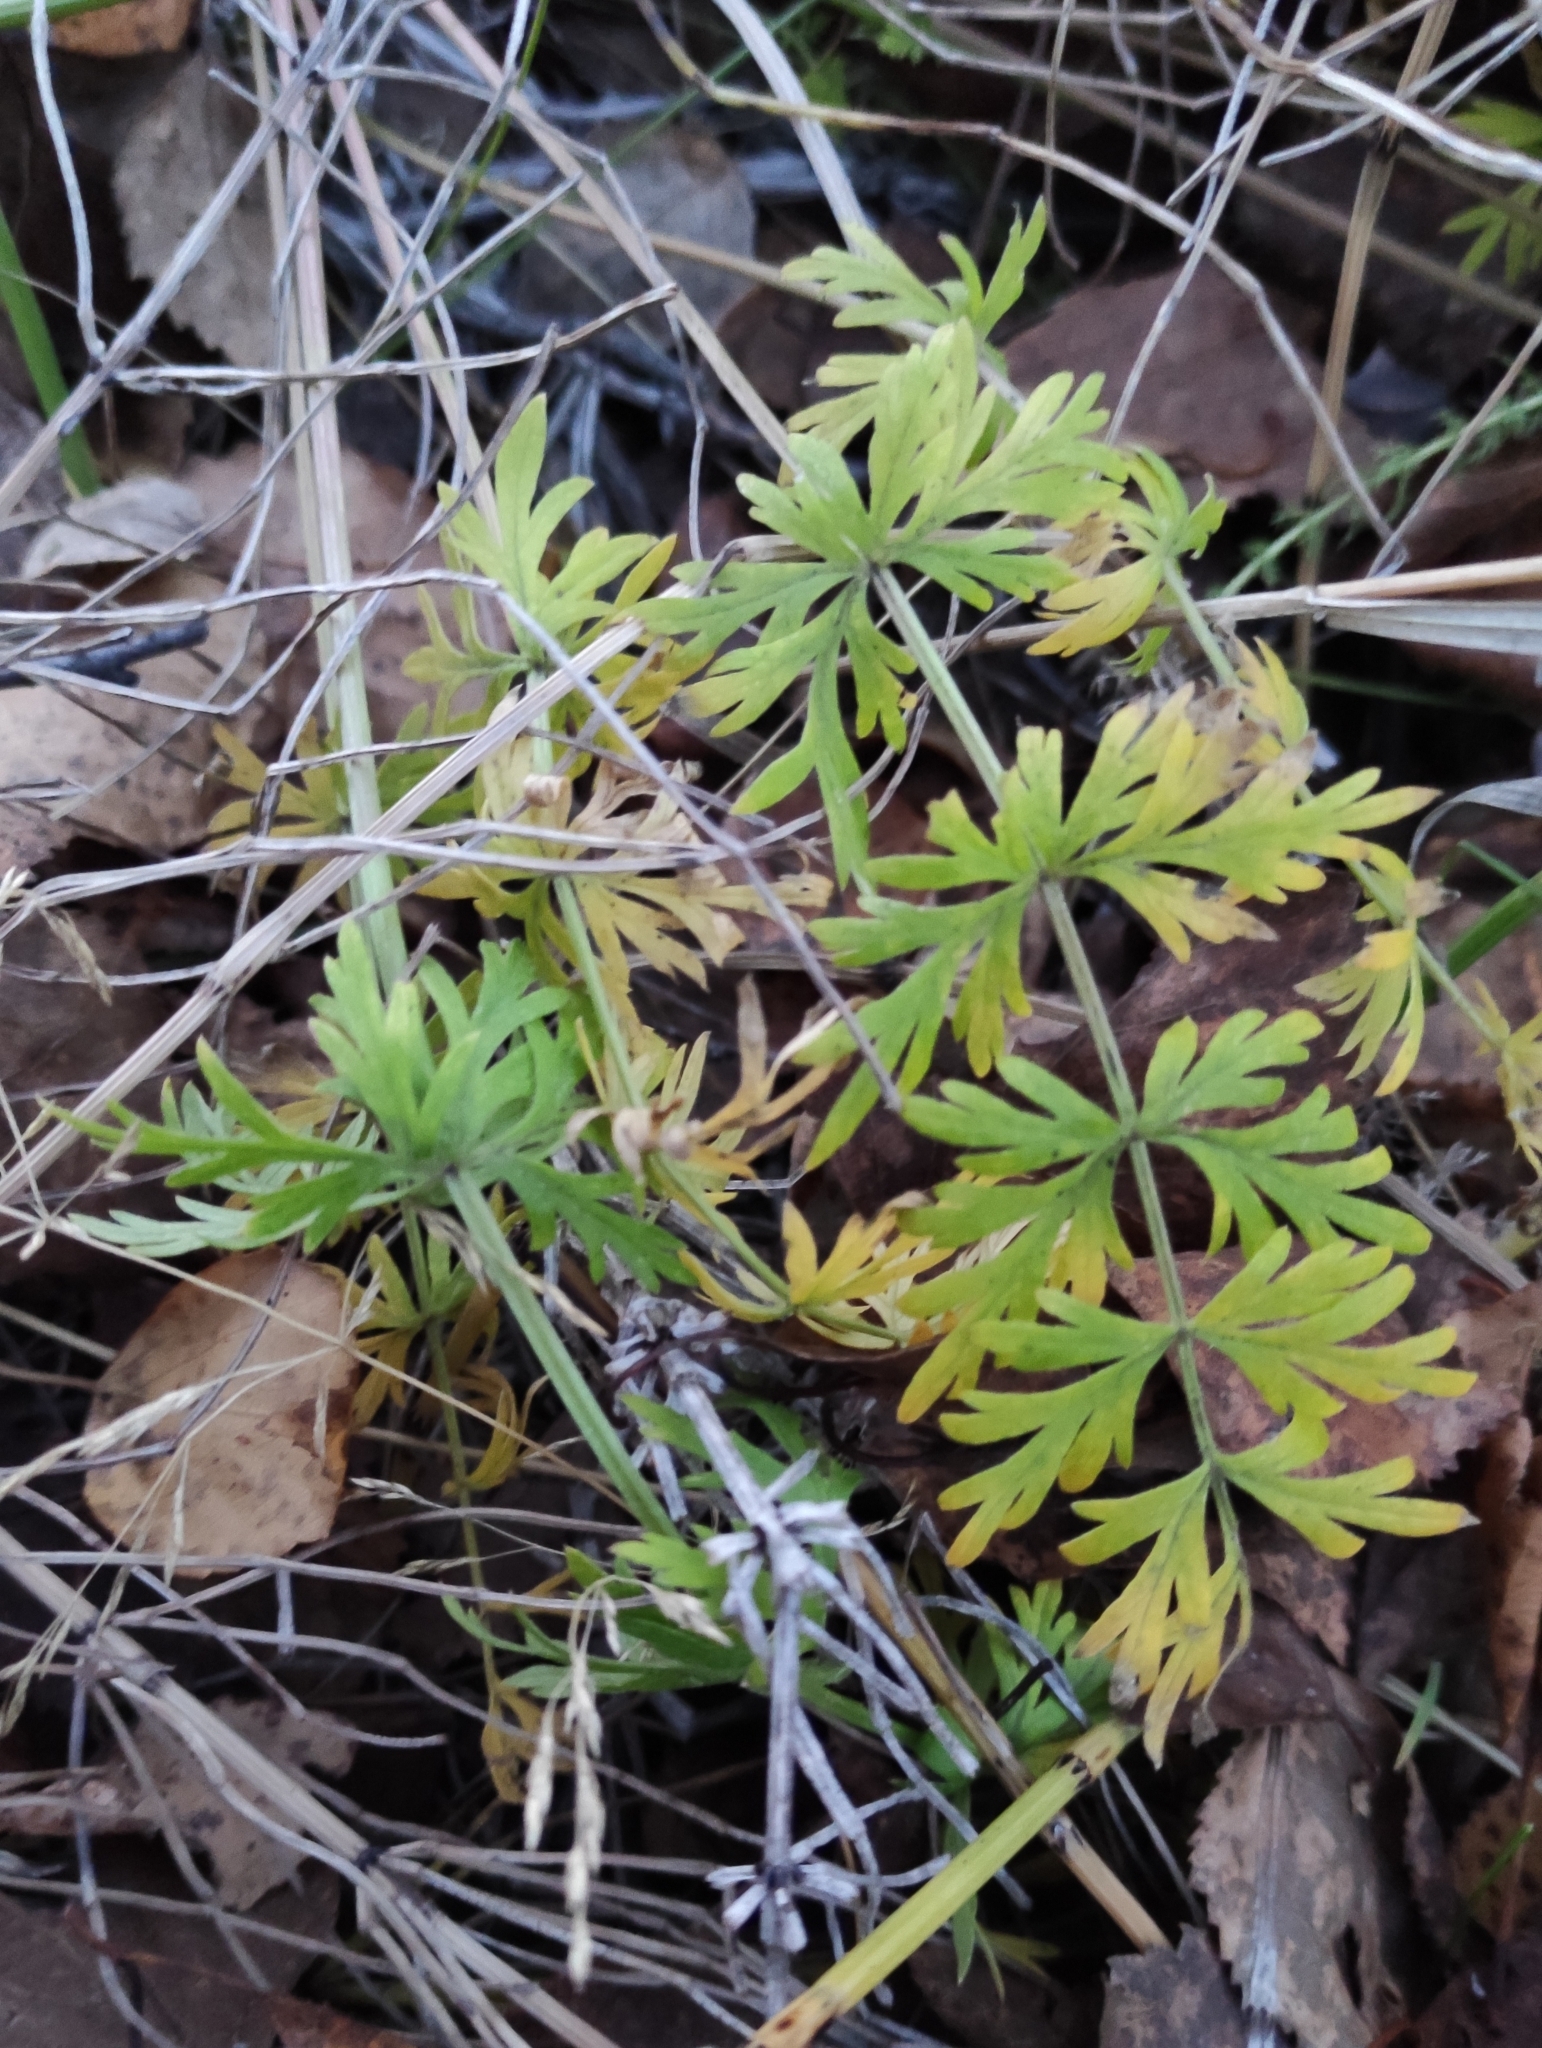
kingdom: Plantae
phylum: Tracheophyta
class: Magnoliopsida
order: Apiales
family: Apiaceae
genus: Seseli
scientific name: Seseli condensatum
